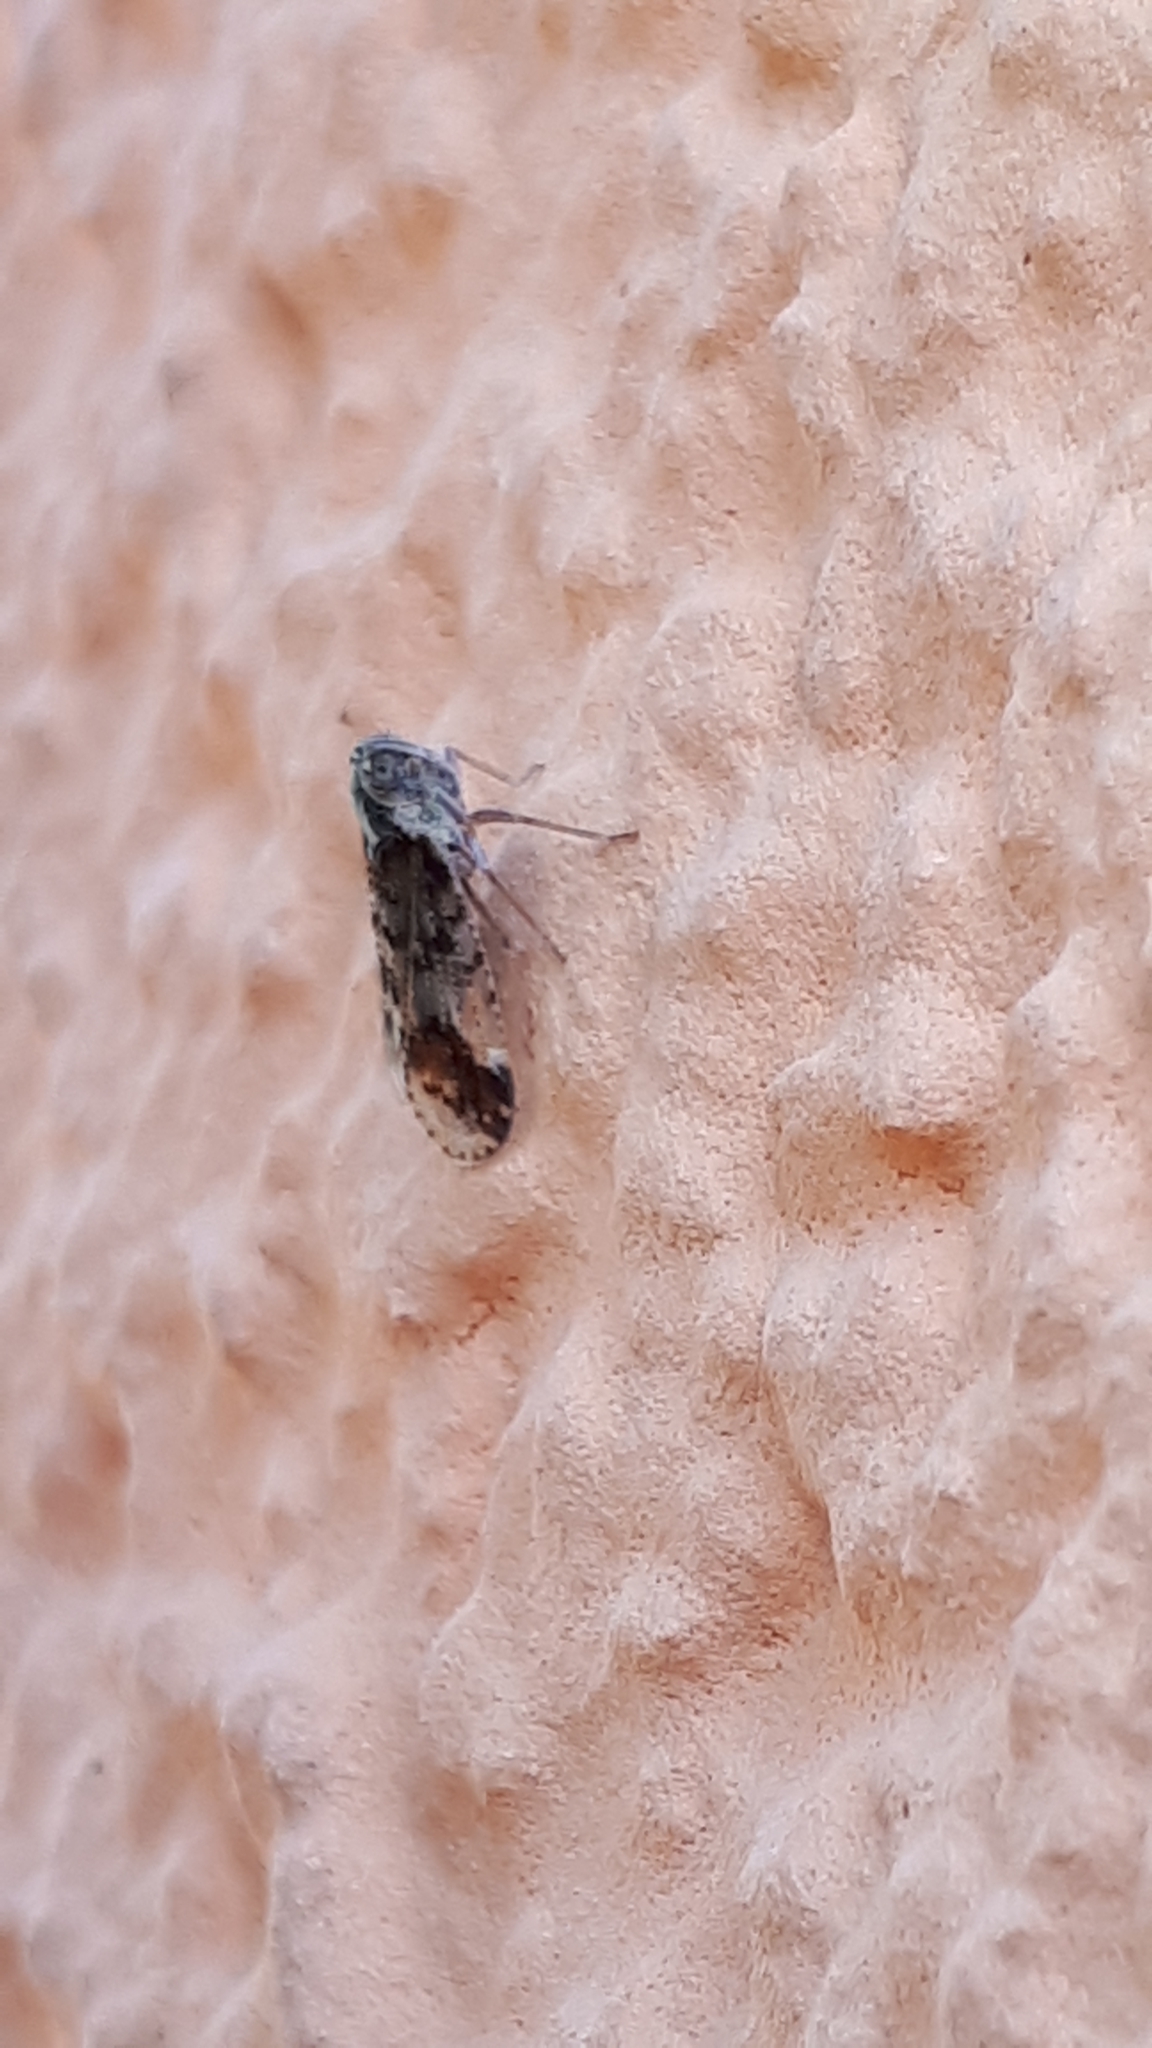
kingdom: Animalia
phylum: Arthropoda
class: Insecta
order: Hemiptera
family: Cixiidae
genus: Cixius
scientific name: Cixius cunicularius
